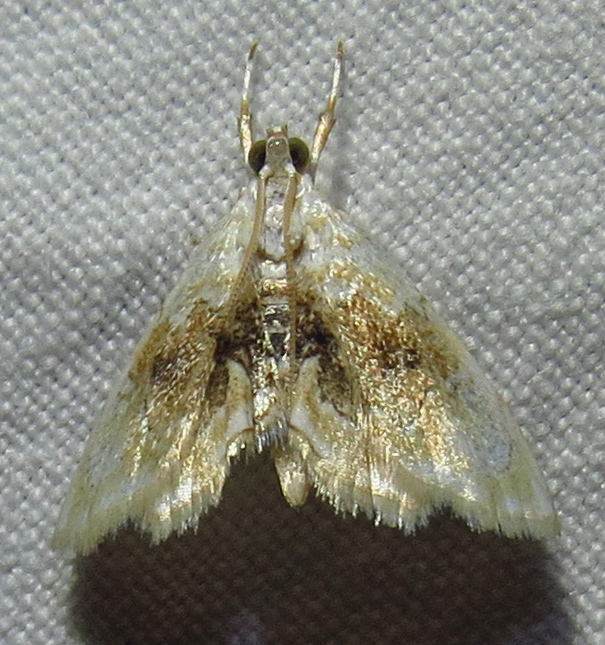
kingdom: Animalia
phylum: Arthropoda
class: Insecta
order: Lepidoptera
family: Crambidae
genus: Lipocosma
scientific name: Lipocosma sicalis
